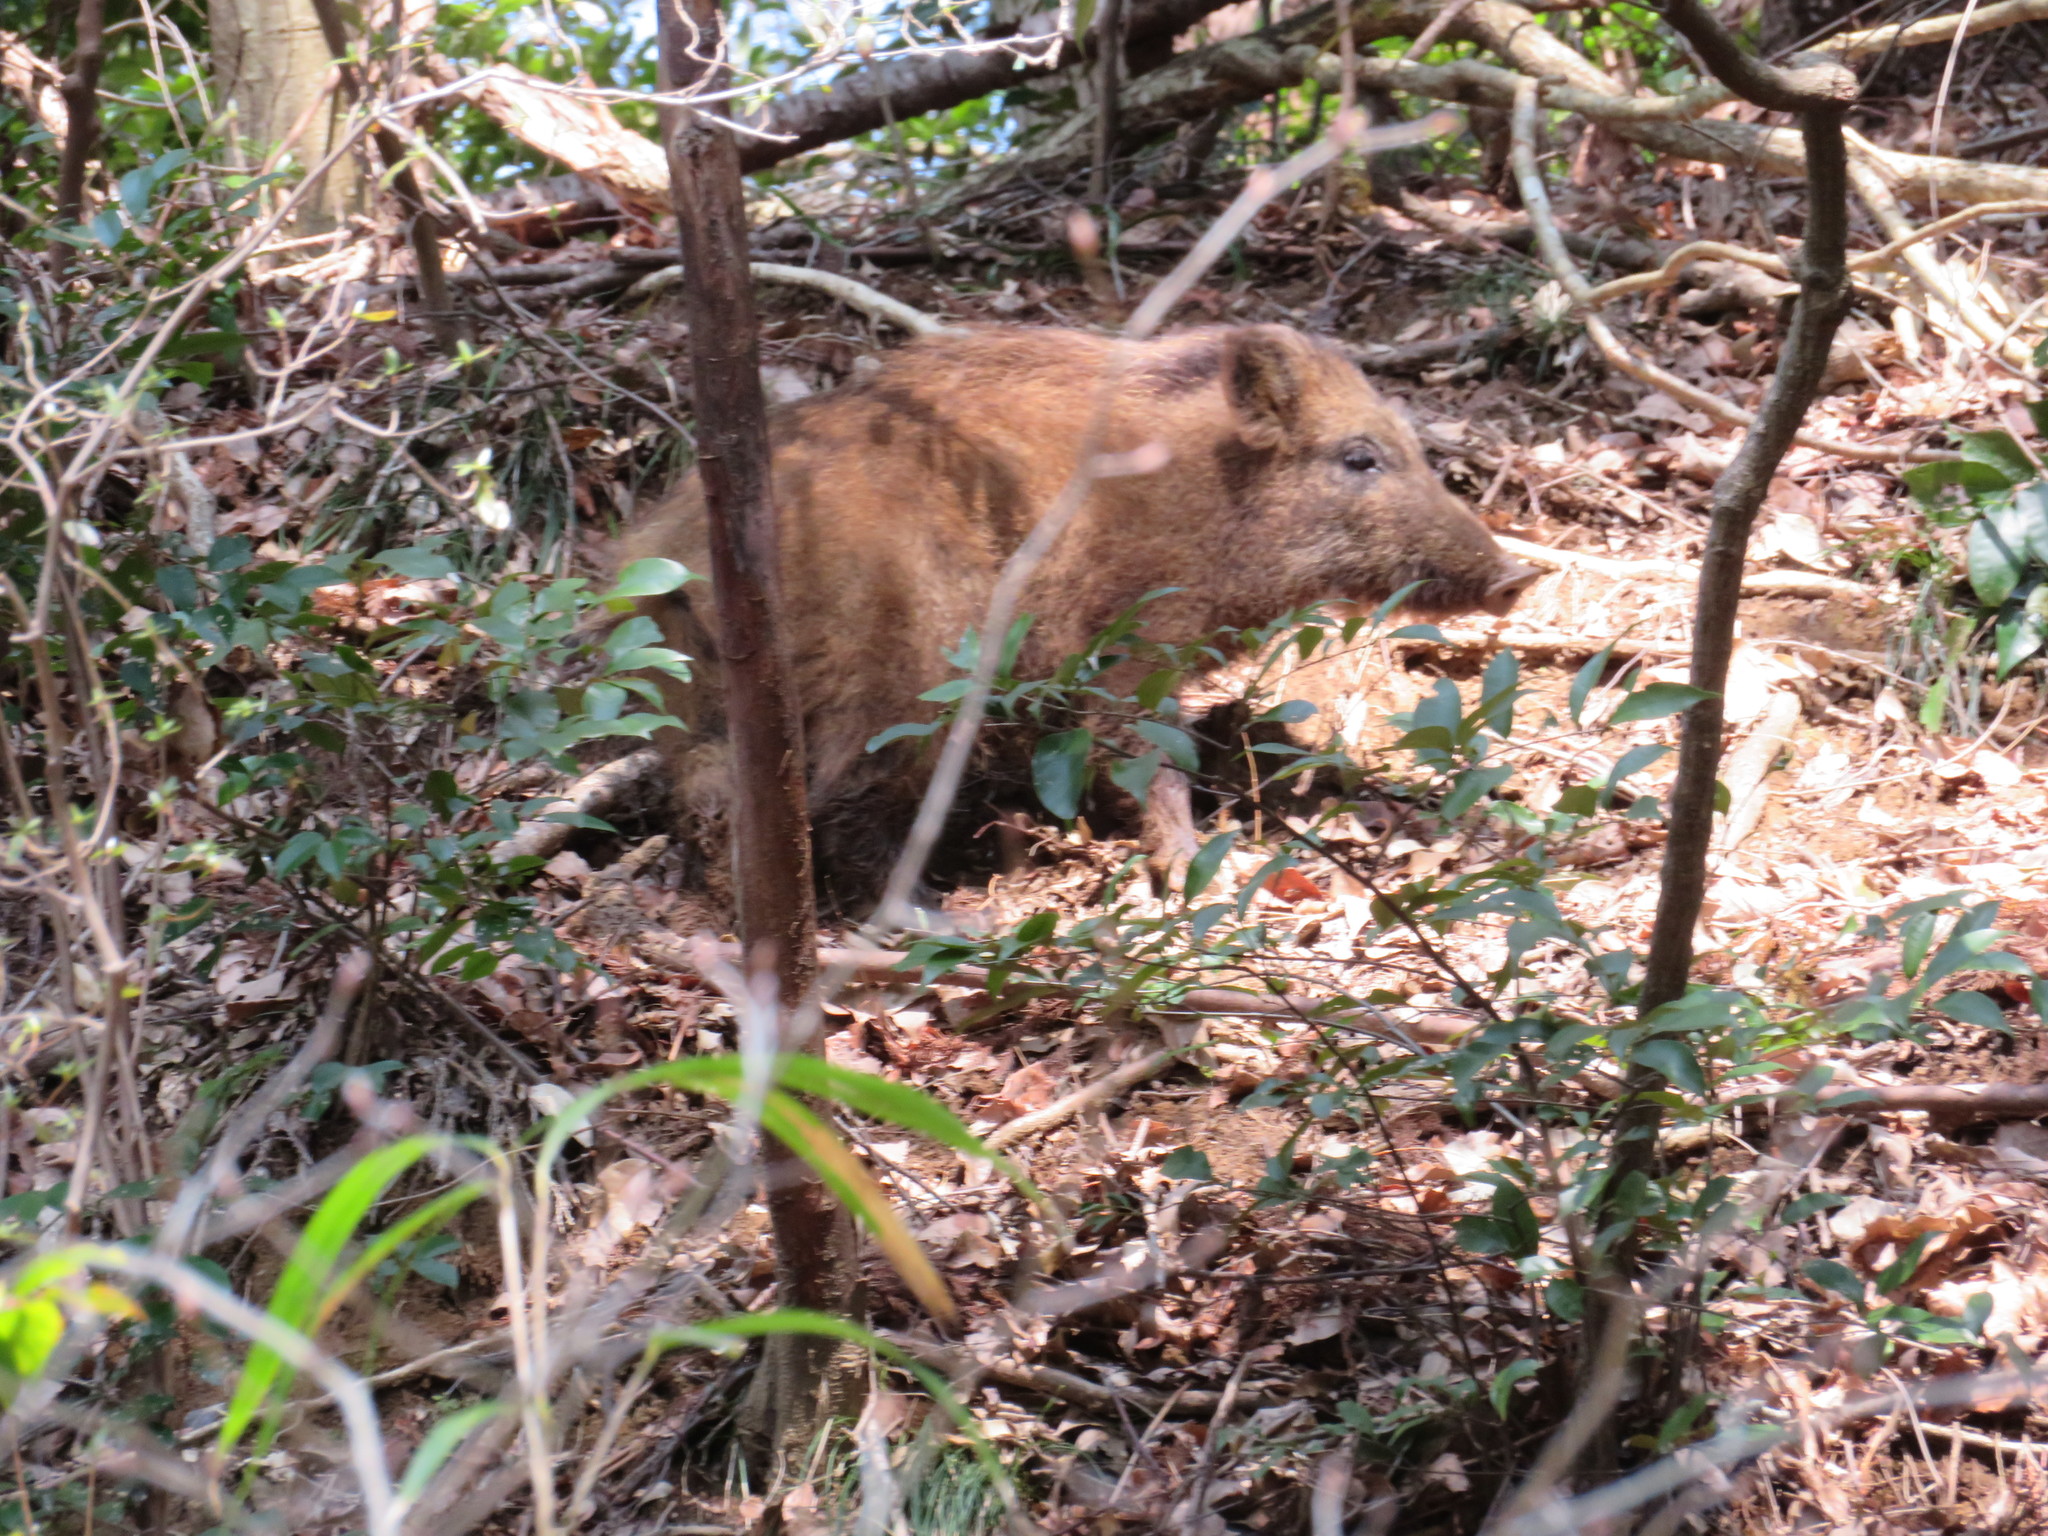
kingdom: Animalia
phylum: Chordata
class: Mammalia
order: Artiodactyla
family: Suidae
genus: Sus
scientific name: Sus scrofa
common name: Wild boar
